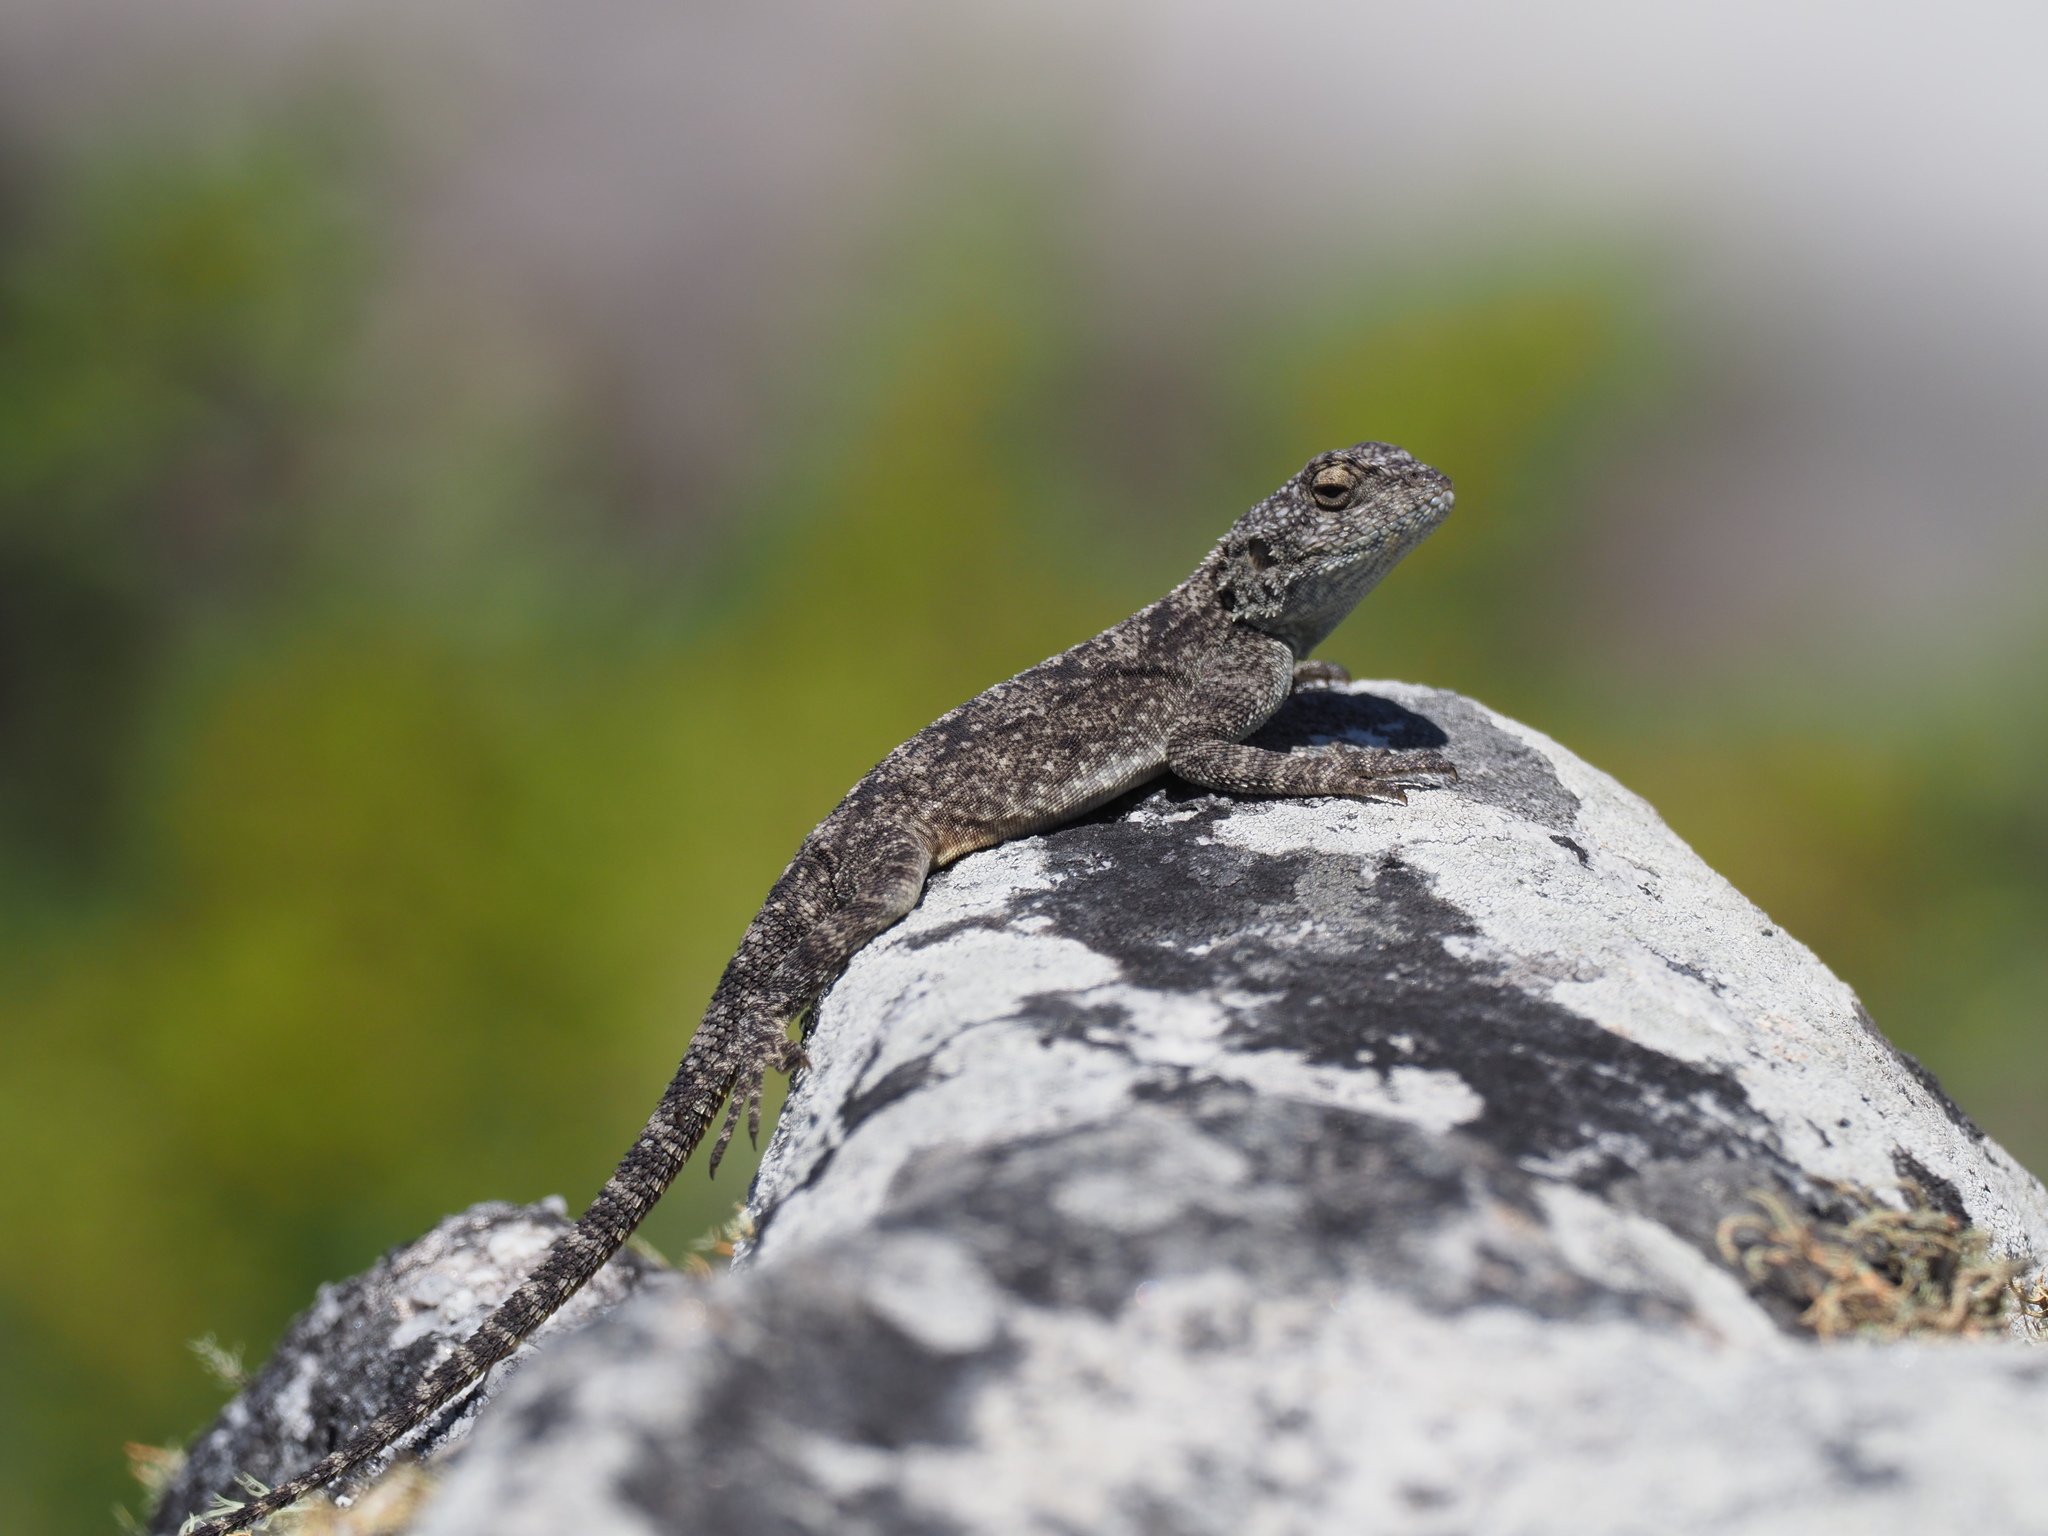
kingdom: Animalia
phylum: Chordata
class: Squamata
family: Agamidae
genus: Agama
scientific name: Agama atra
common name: Southern african rock agama
